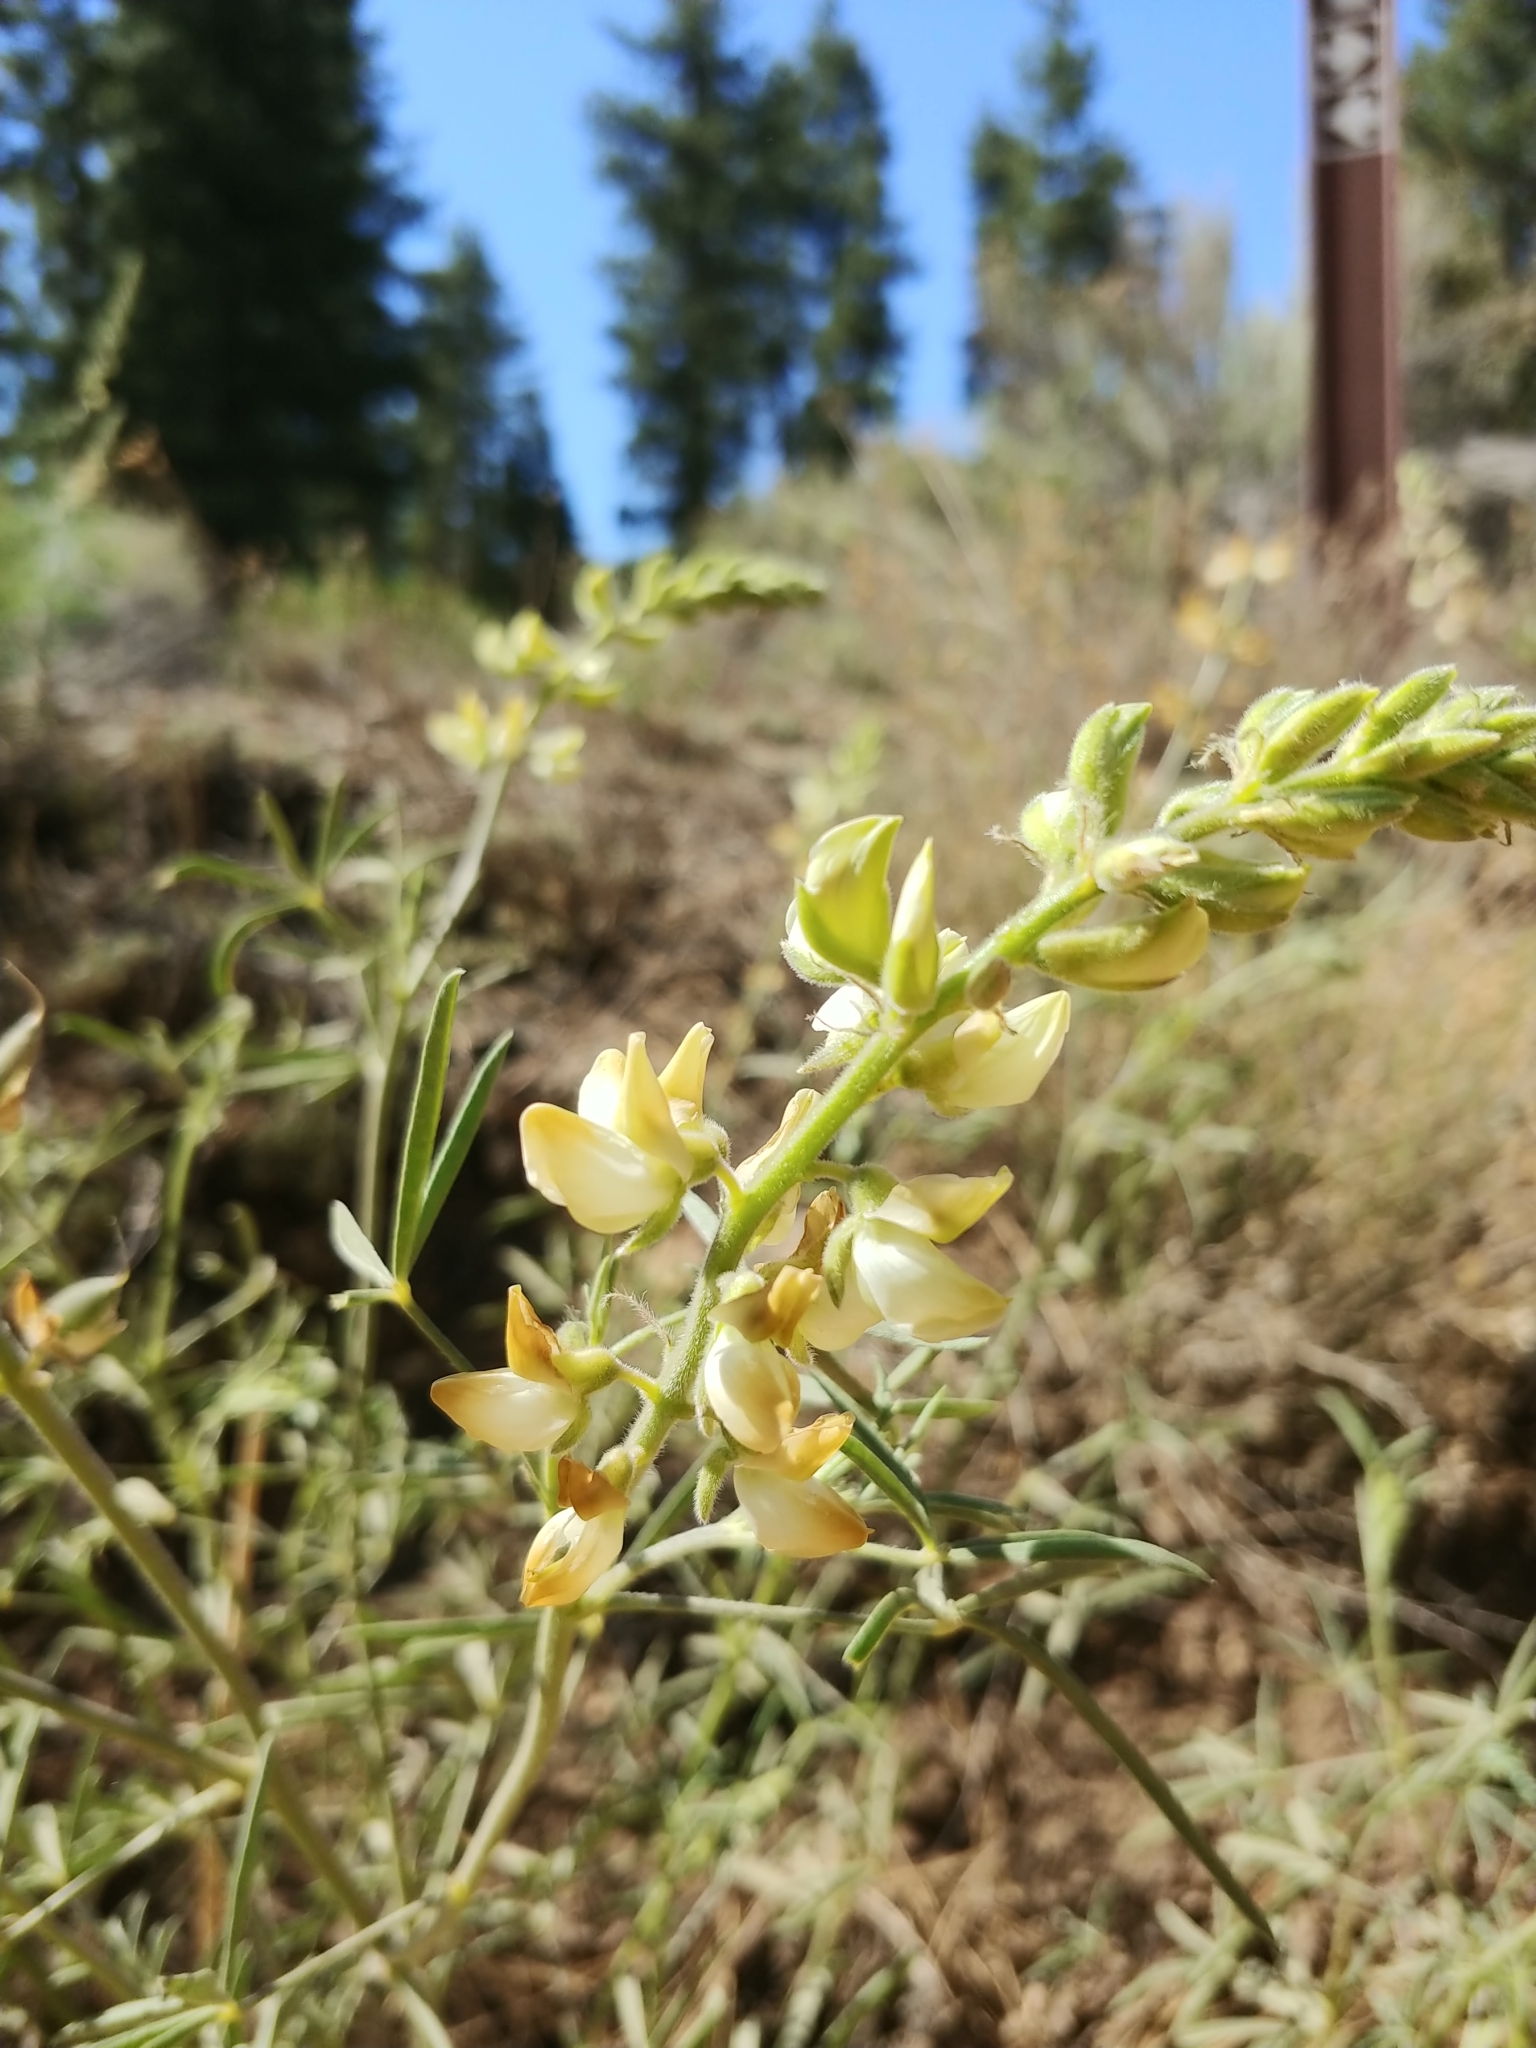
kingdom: Plantae
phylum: Tracheophyta
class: Magnoliopsida
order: Fabales
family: Fabaceae
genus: Lupinus
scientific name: Lupinus andersonii
